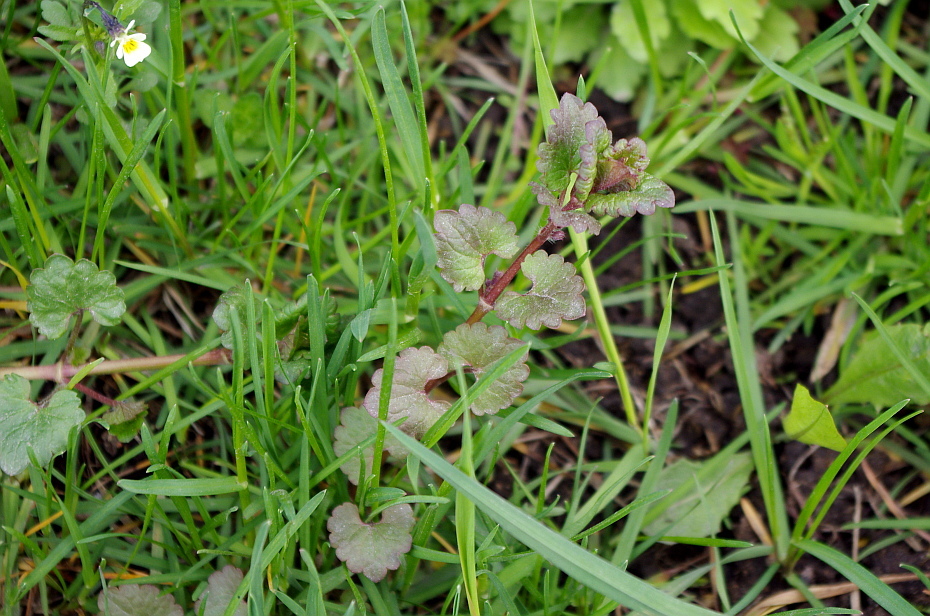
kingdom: Plantae
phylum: Tracheophyta
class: Magnoliopsida
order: Lamiales
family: Lamiaceae
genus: Glechoma
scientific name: Glechoma hederacea
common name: Ground ivy
